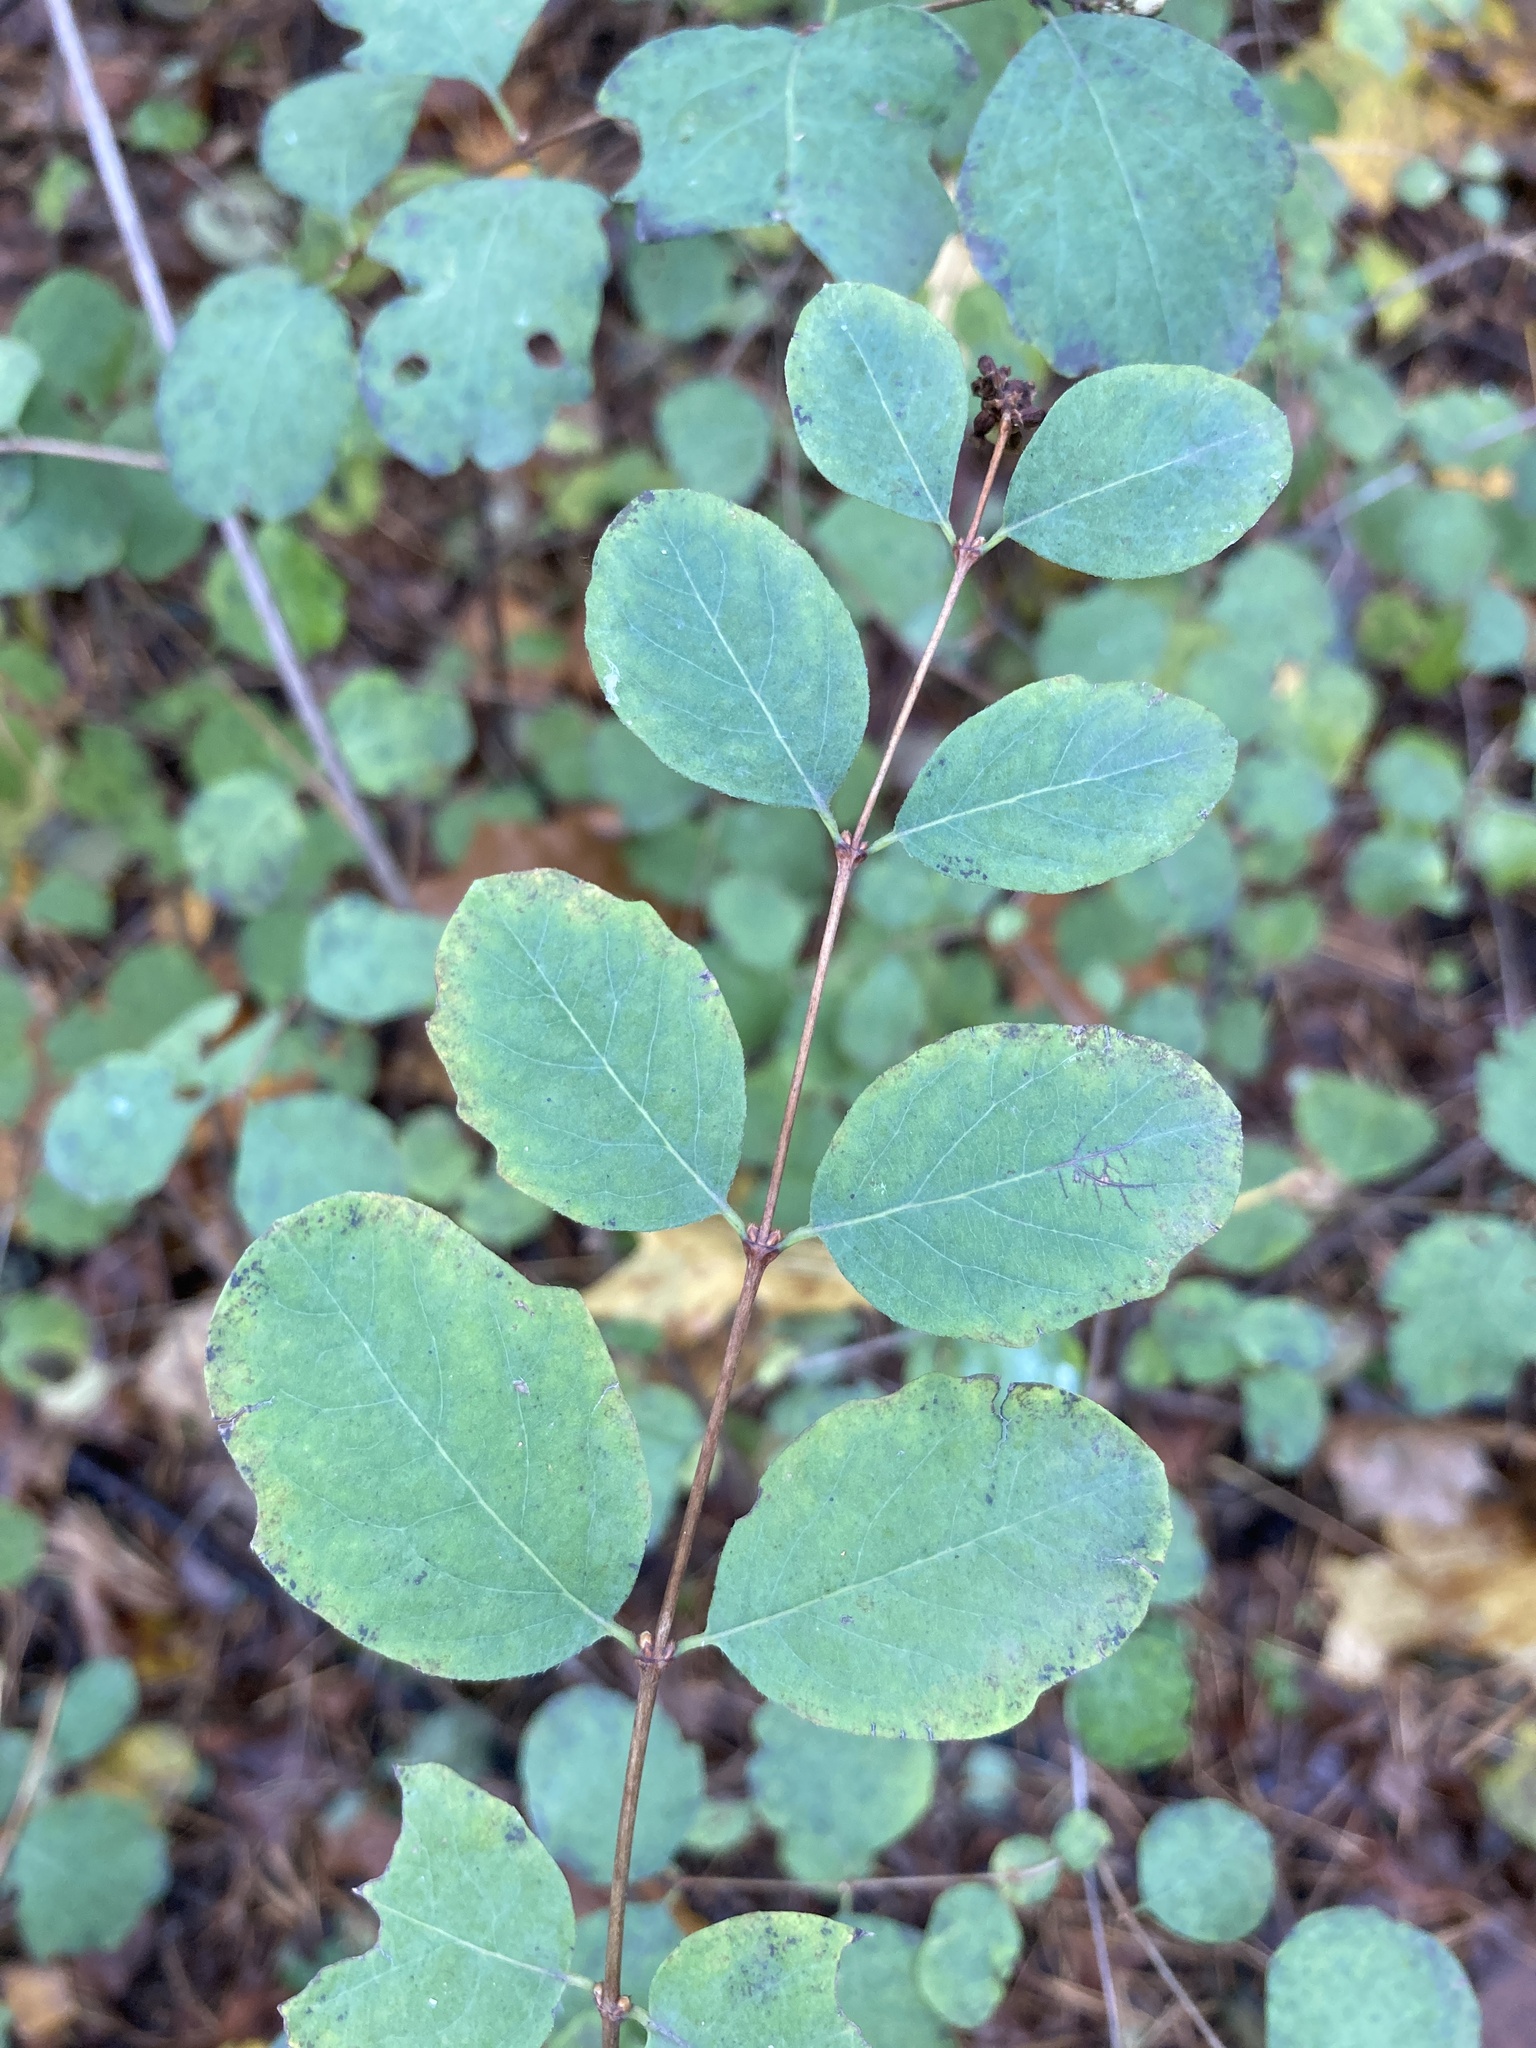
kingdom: Plantae
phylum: Tracheophyta
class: Magnoliopsida
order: Dipsacales
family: Caprifoliaceae
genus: Symphoricarpos
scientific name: Symphoricarpos albus
